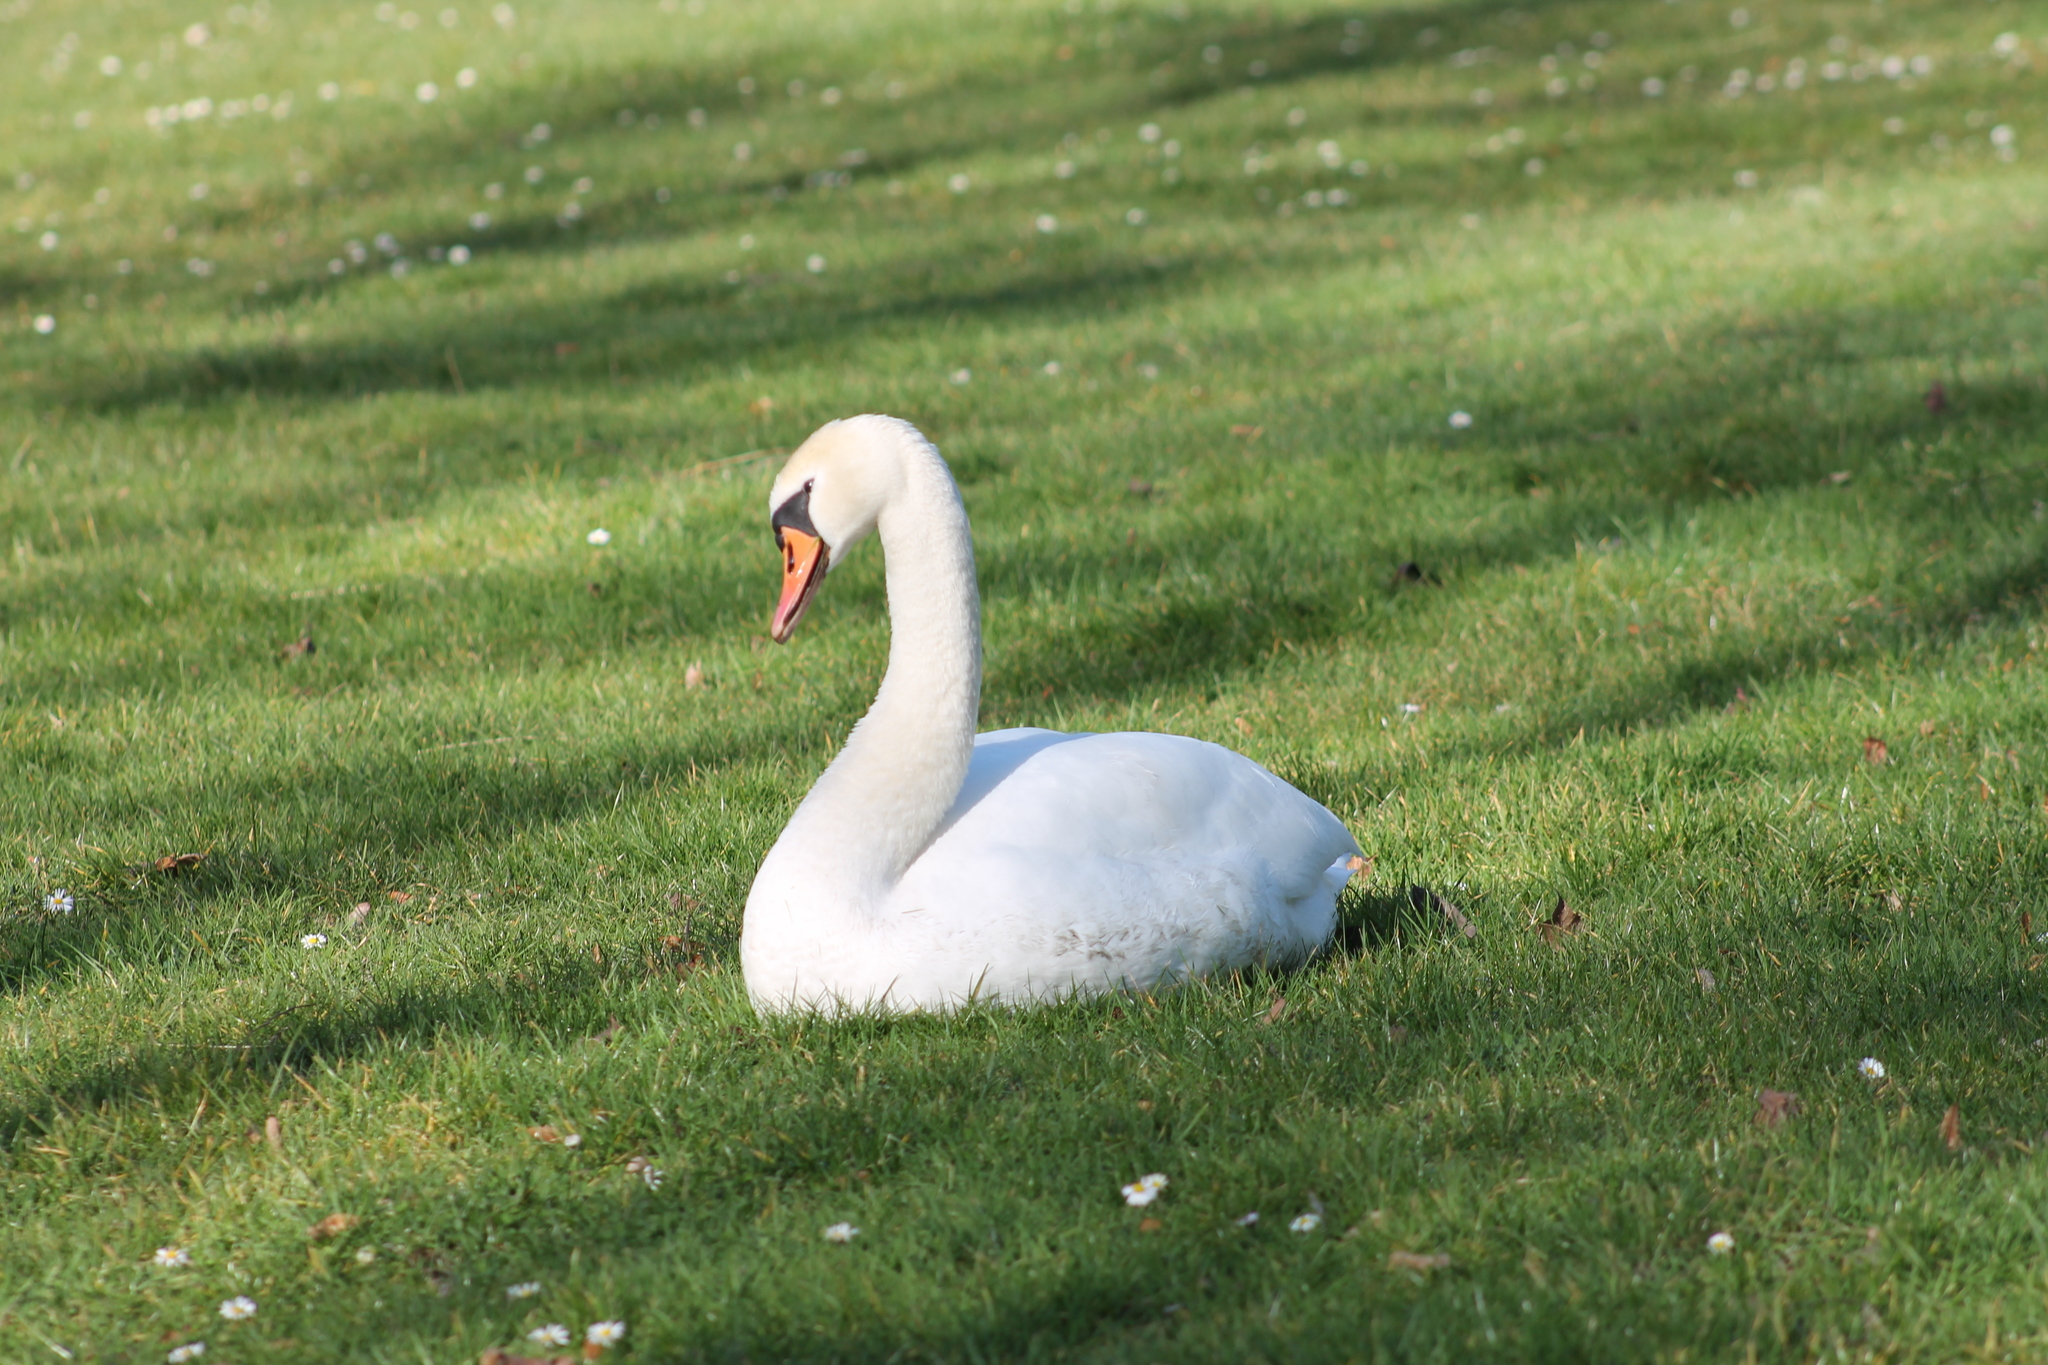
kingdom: Animalia
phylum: Chordata
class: Aves
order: Anseriformes
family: Anatidae
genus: Cygnus
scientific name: Cygnus olor
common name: Mute swan
